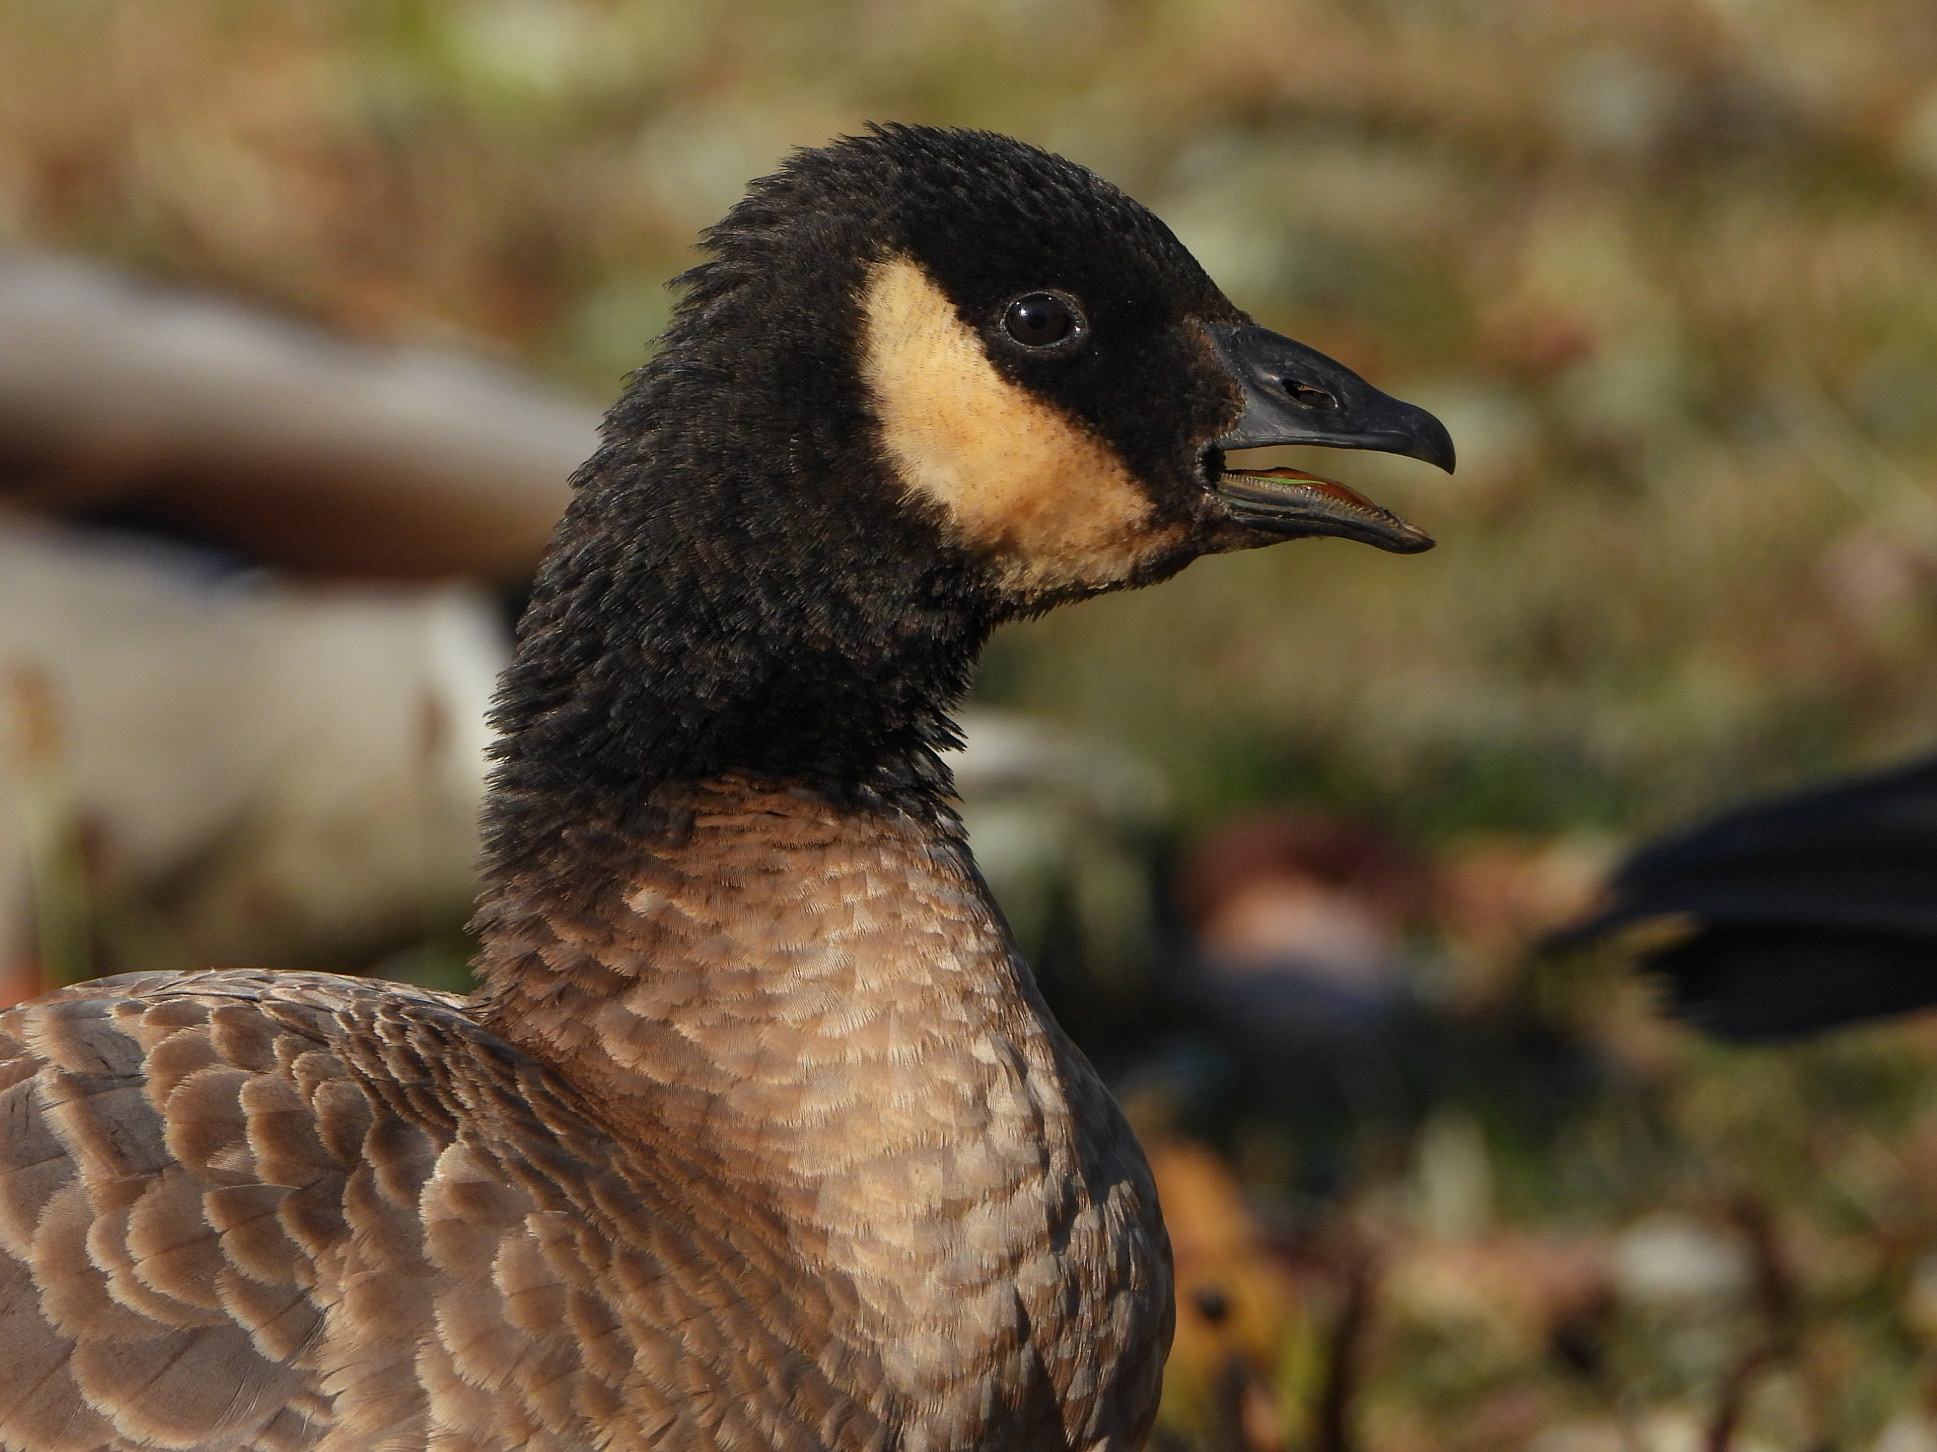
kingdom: Animalia
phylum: Chordata
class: Aves
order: Anseriformes
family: Anatidae
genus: Branta
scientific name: Branta hutchinsii
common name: Cackling goose
